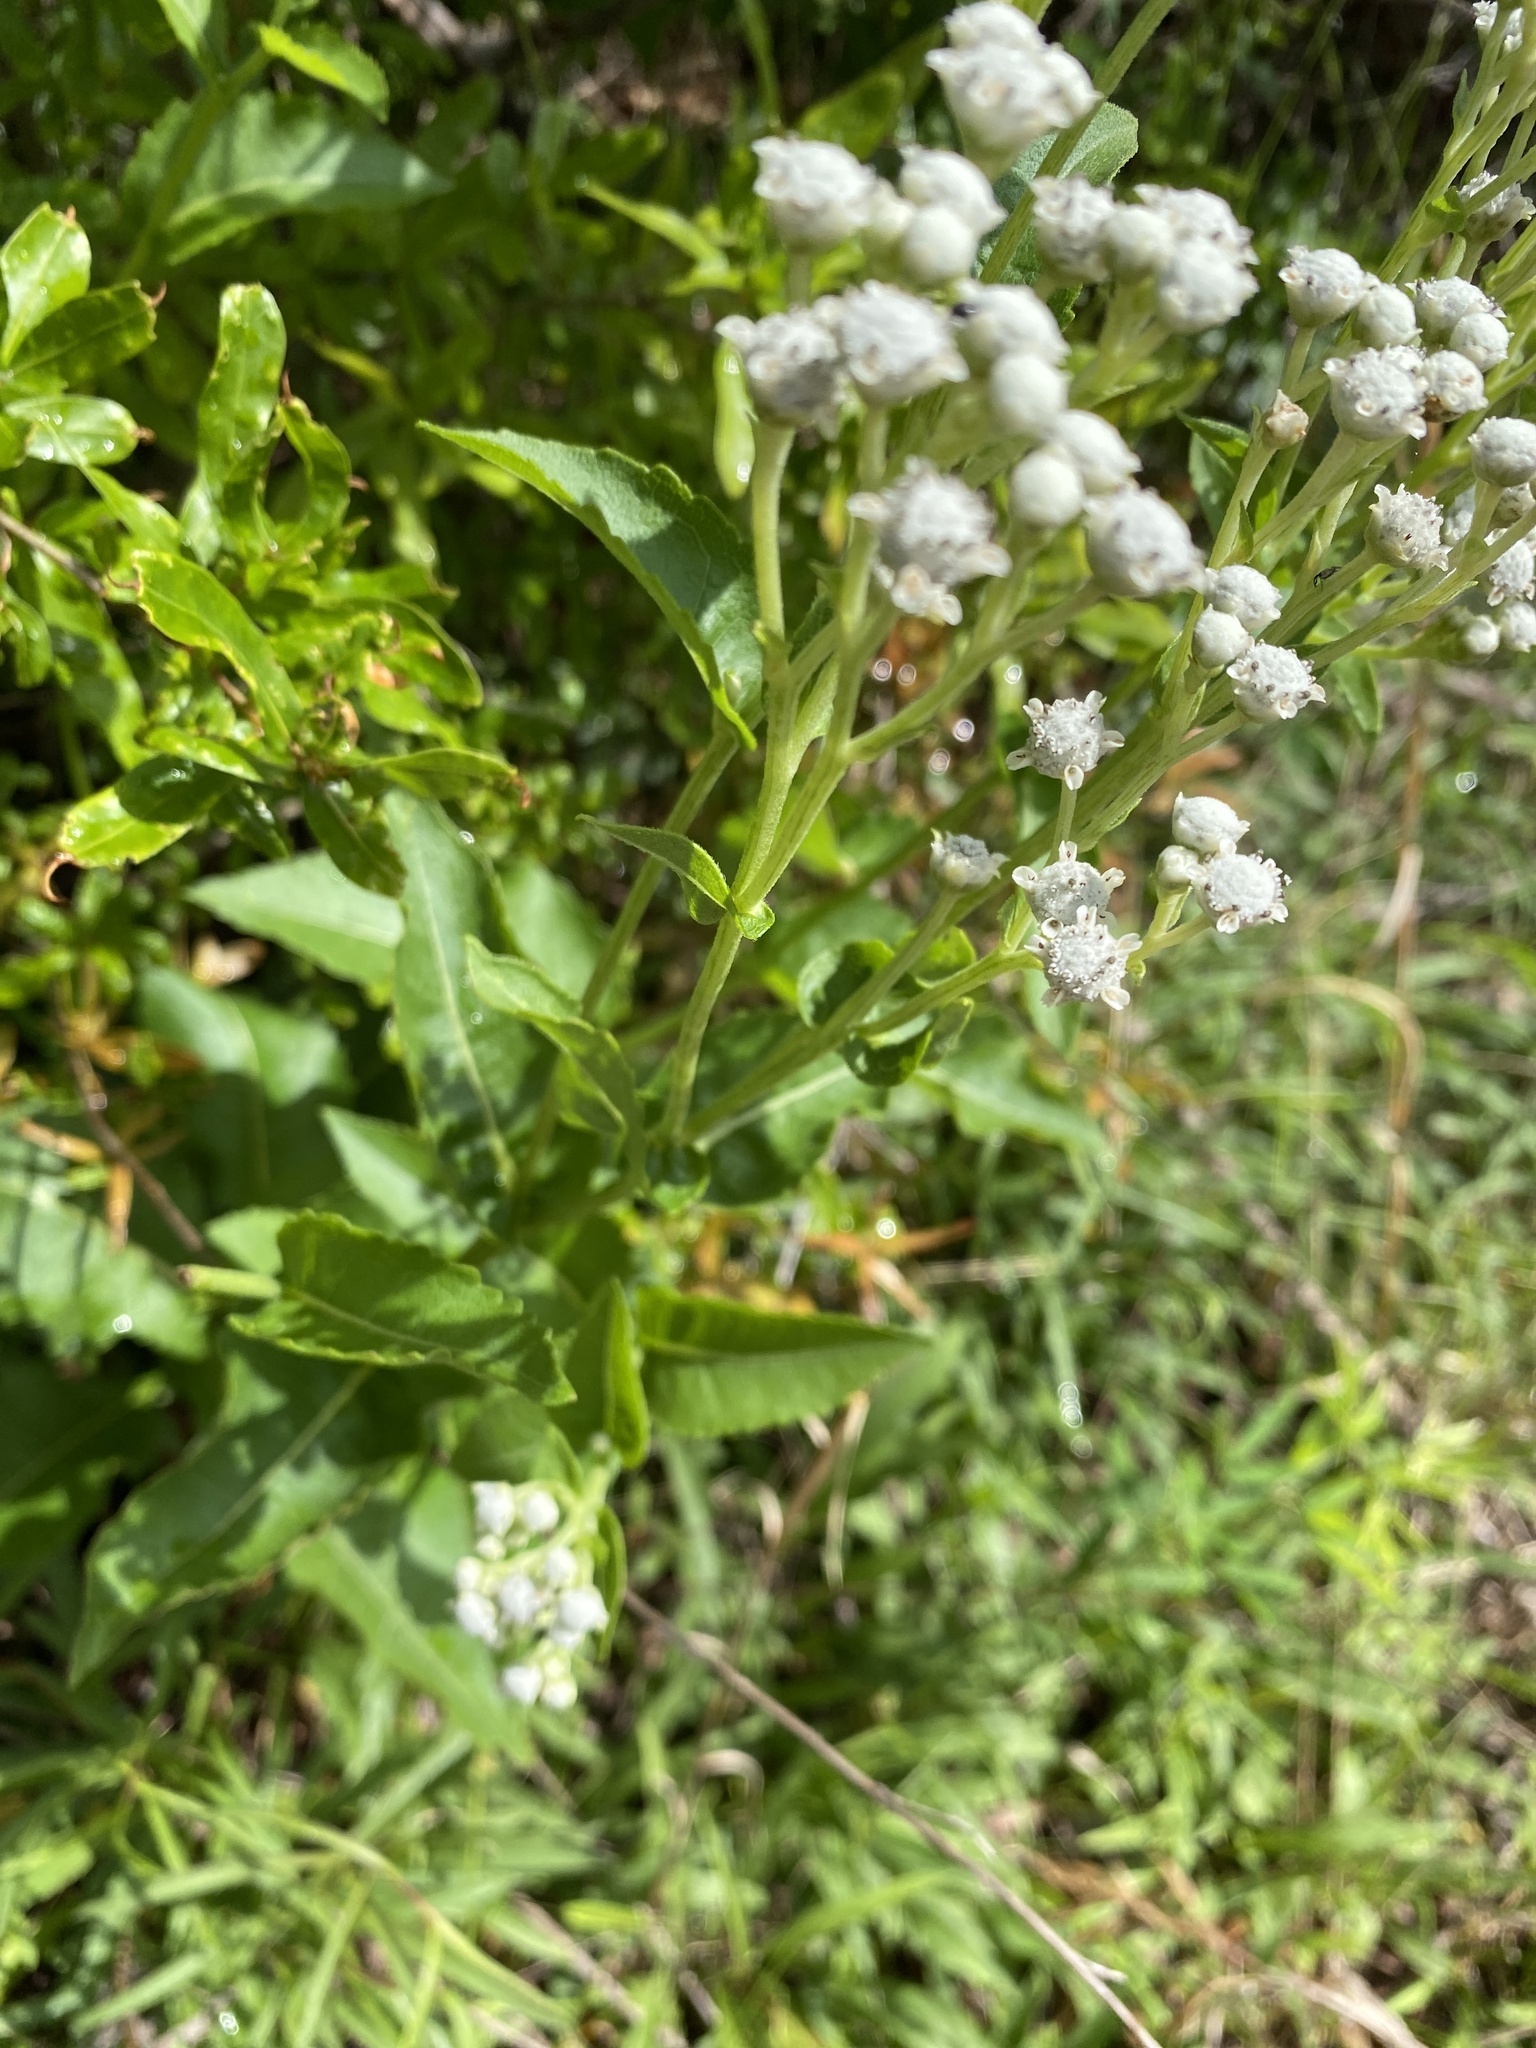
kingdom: Plantae
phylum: Tracheophyta
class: Magnoliopsida
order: Asterales
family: Asteraceae
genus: Parthenium
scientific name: Parthenium integrifolium
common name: American feverfew
